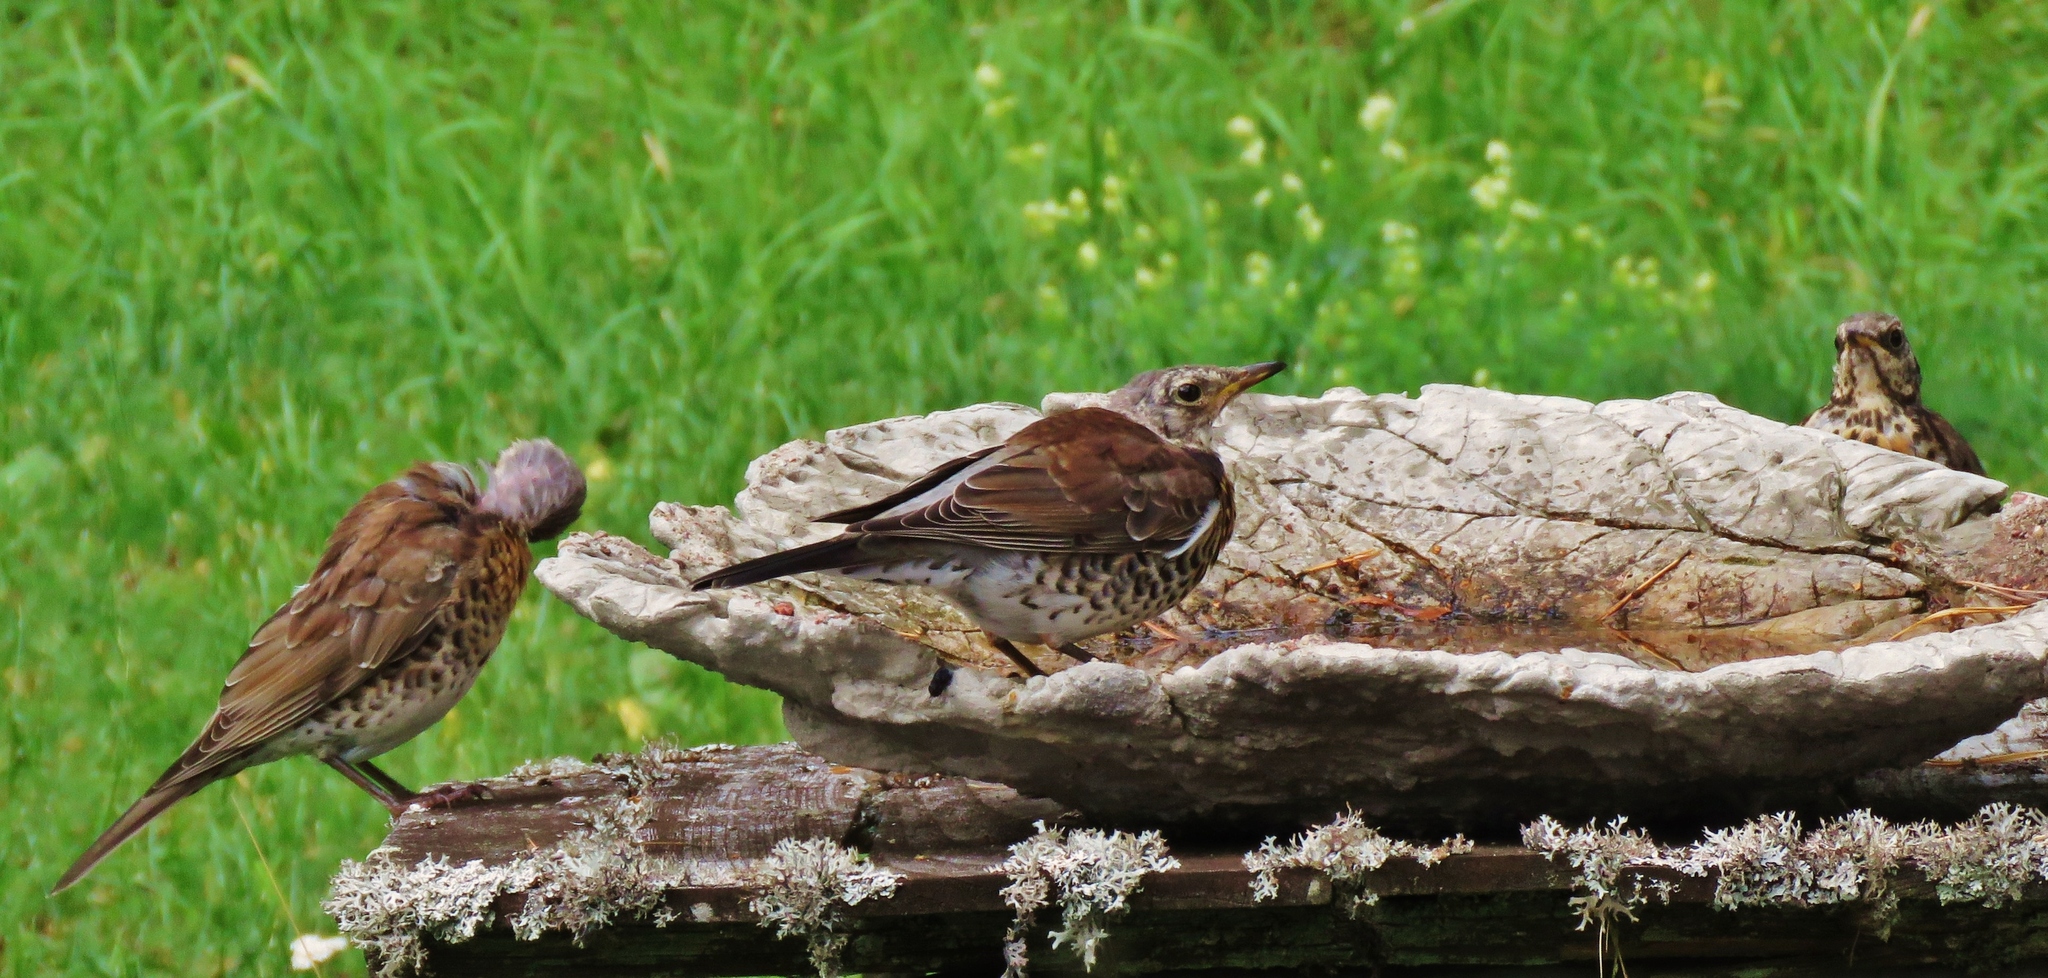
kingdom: Animalia
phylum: Chordata
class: Aves
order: Passeriformes
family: Turdidae
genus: Turdus
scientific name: Turdus pilaris
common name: Fieldfare
